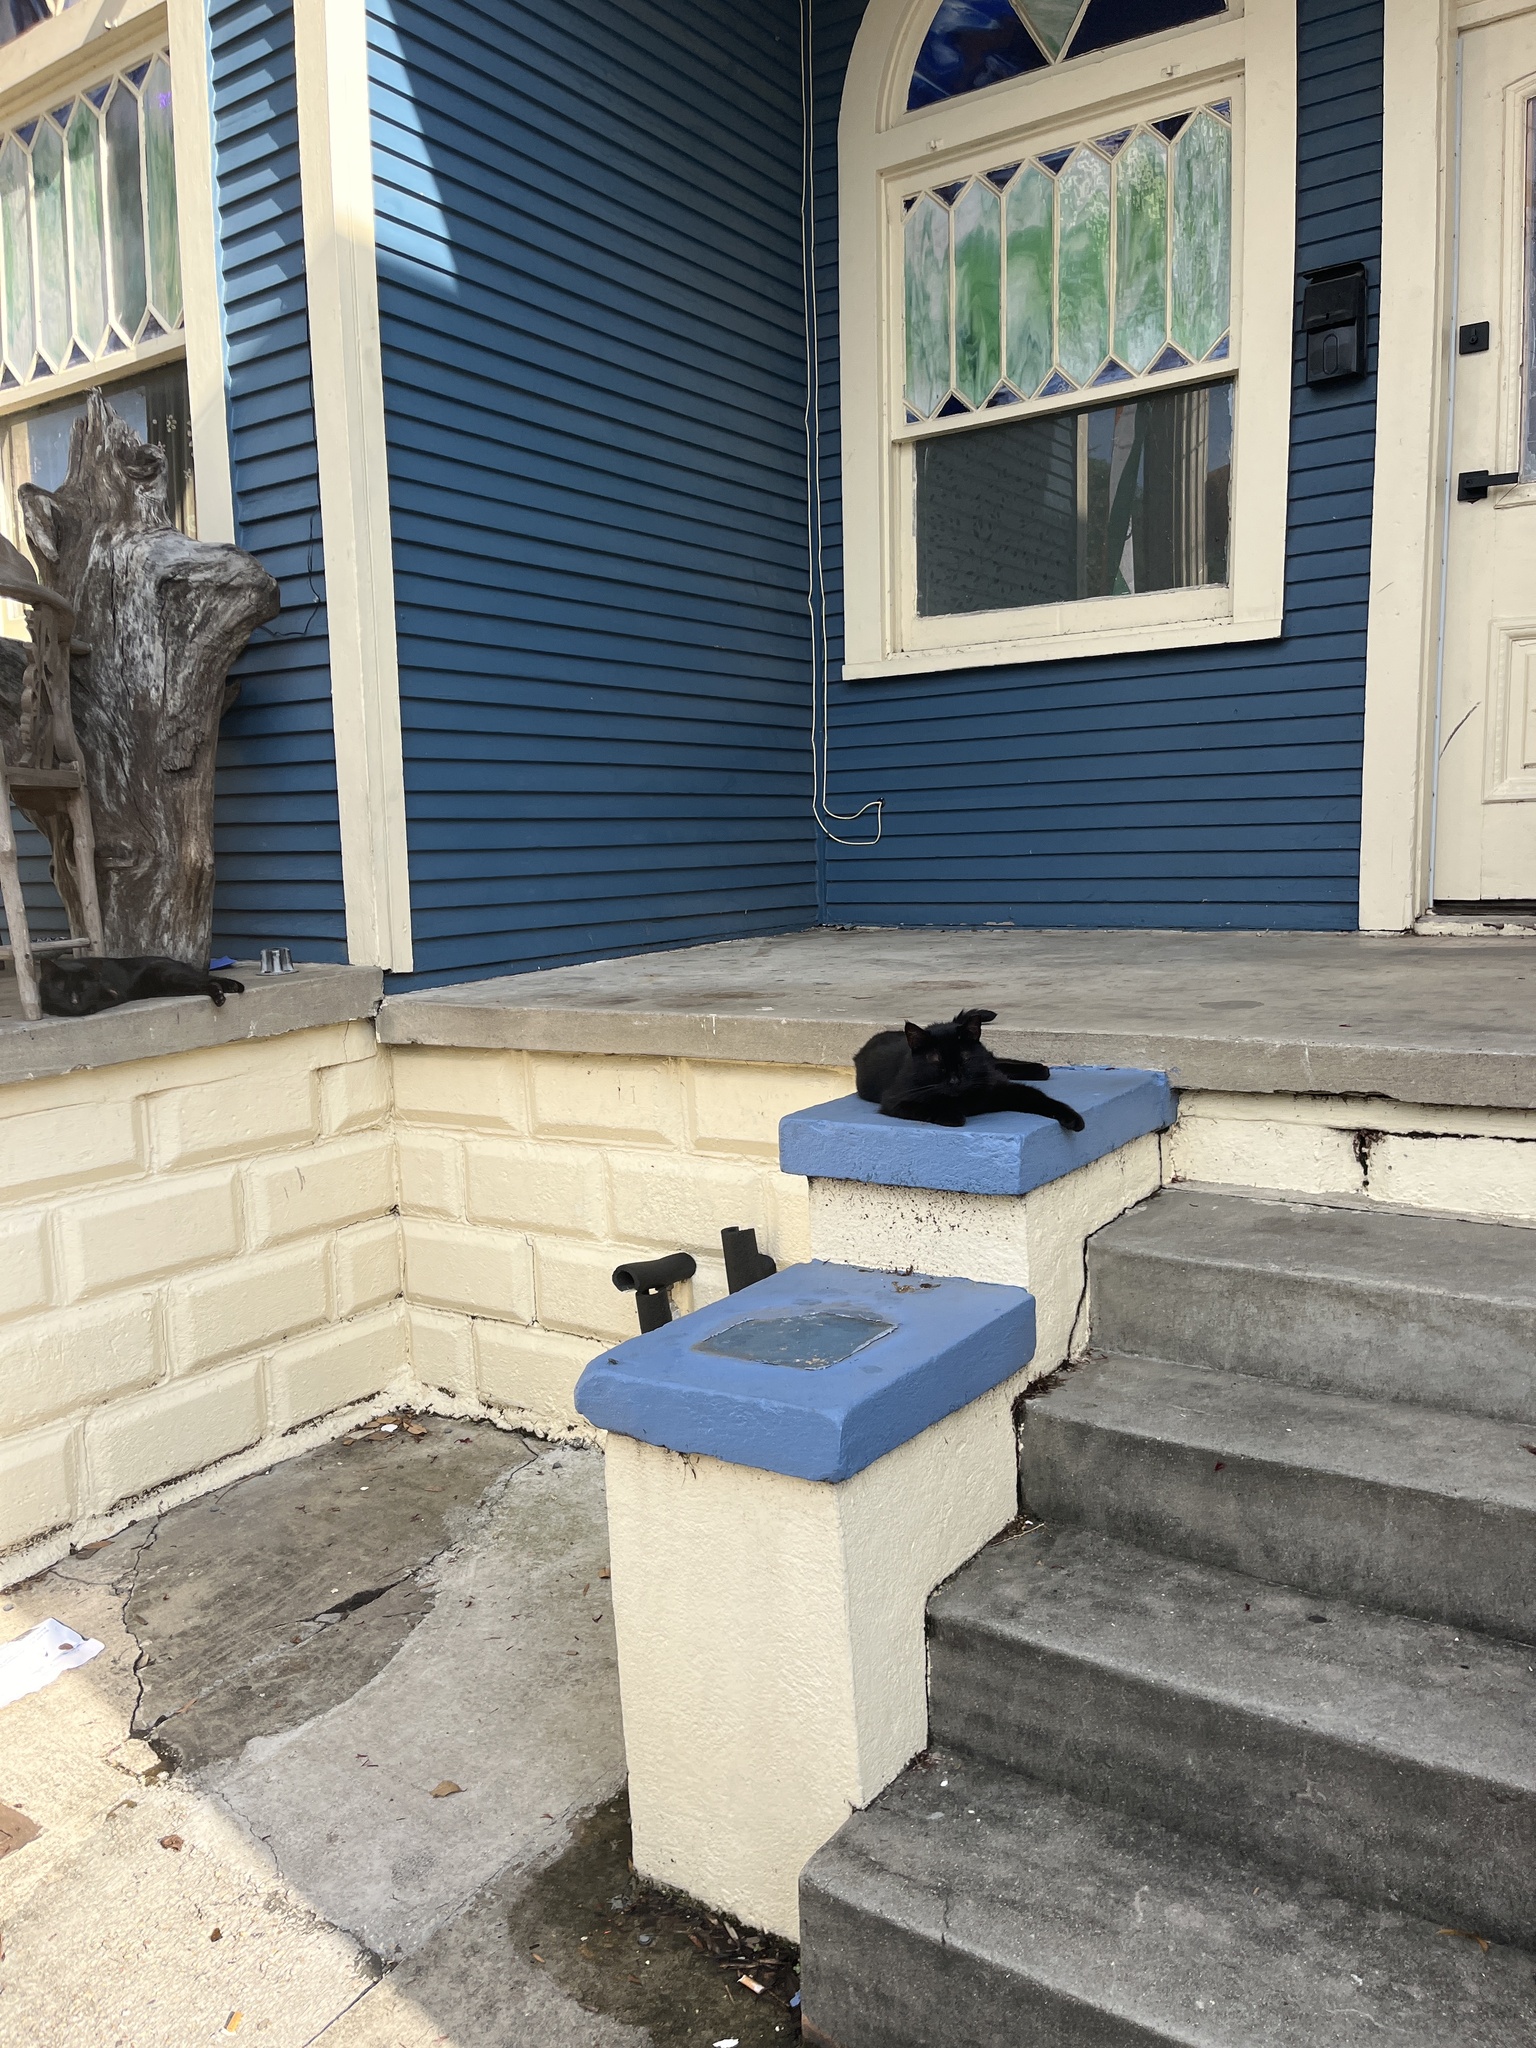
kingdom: Animalia
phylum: Chordata
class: Mammalia
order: Carnivora
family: Felidae
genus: Felis
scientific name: Felis catus
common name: Domestic cat
